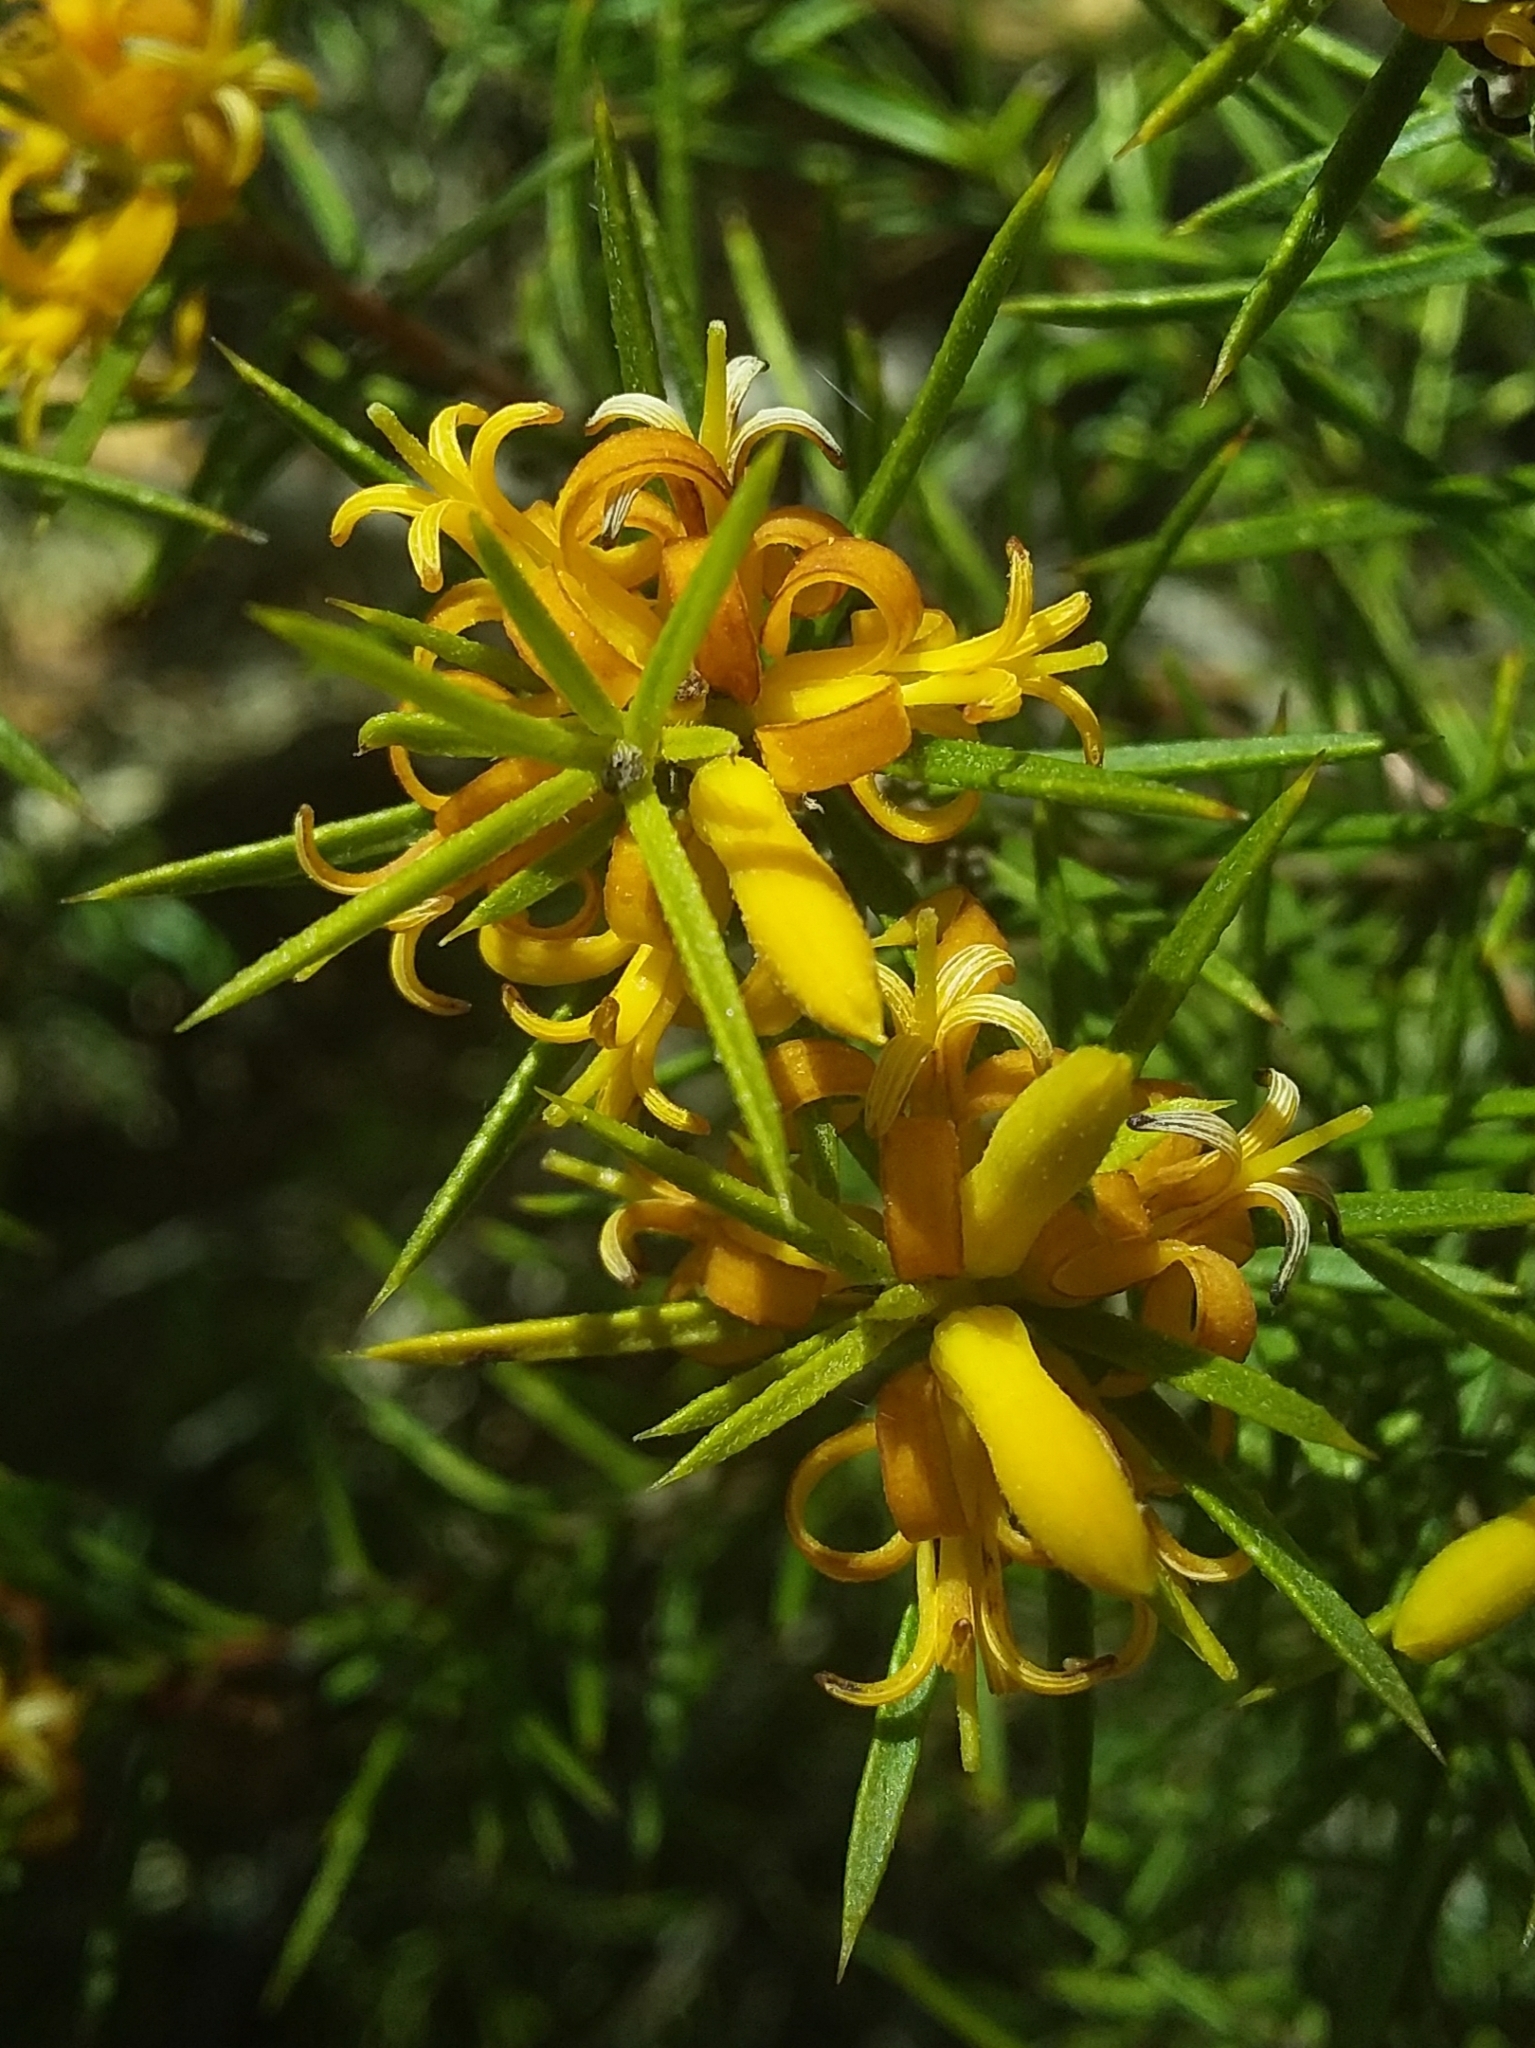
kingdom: Plantae
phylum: Tracheophyta
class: Magnoliopsida
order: Proteales
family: Proteaceae
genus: Persoonia
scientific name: Persoonia juniperina
